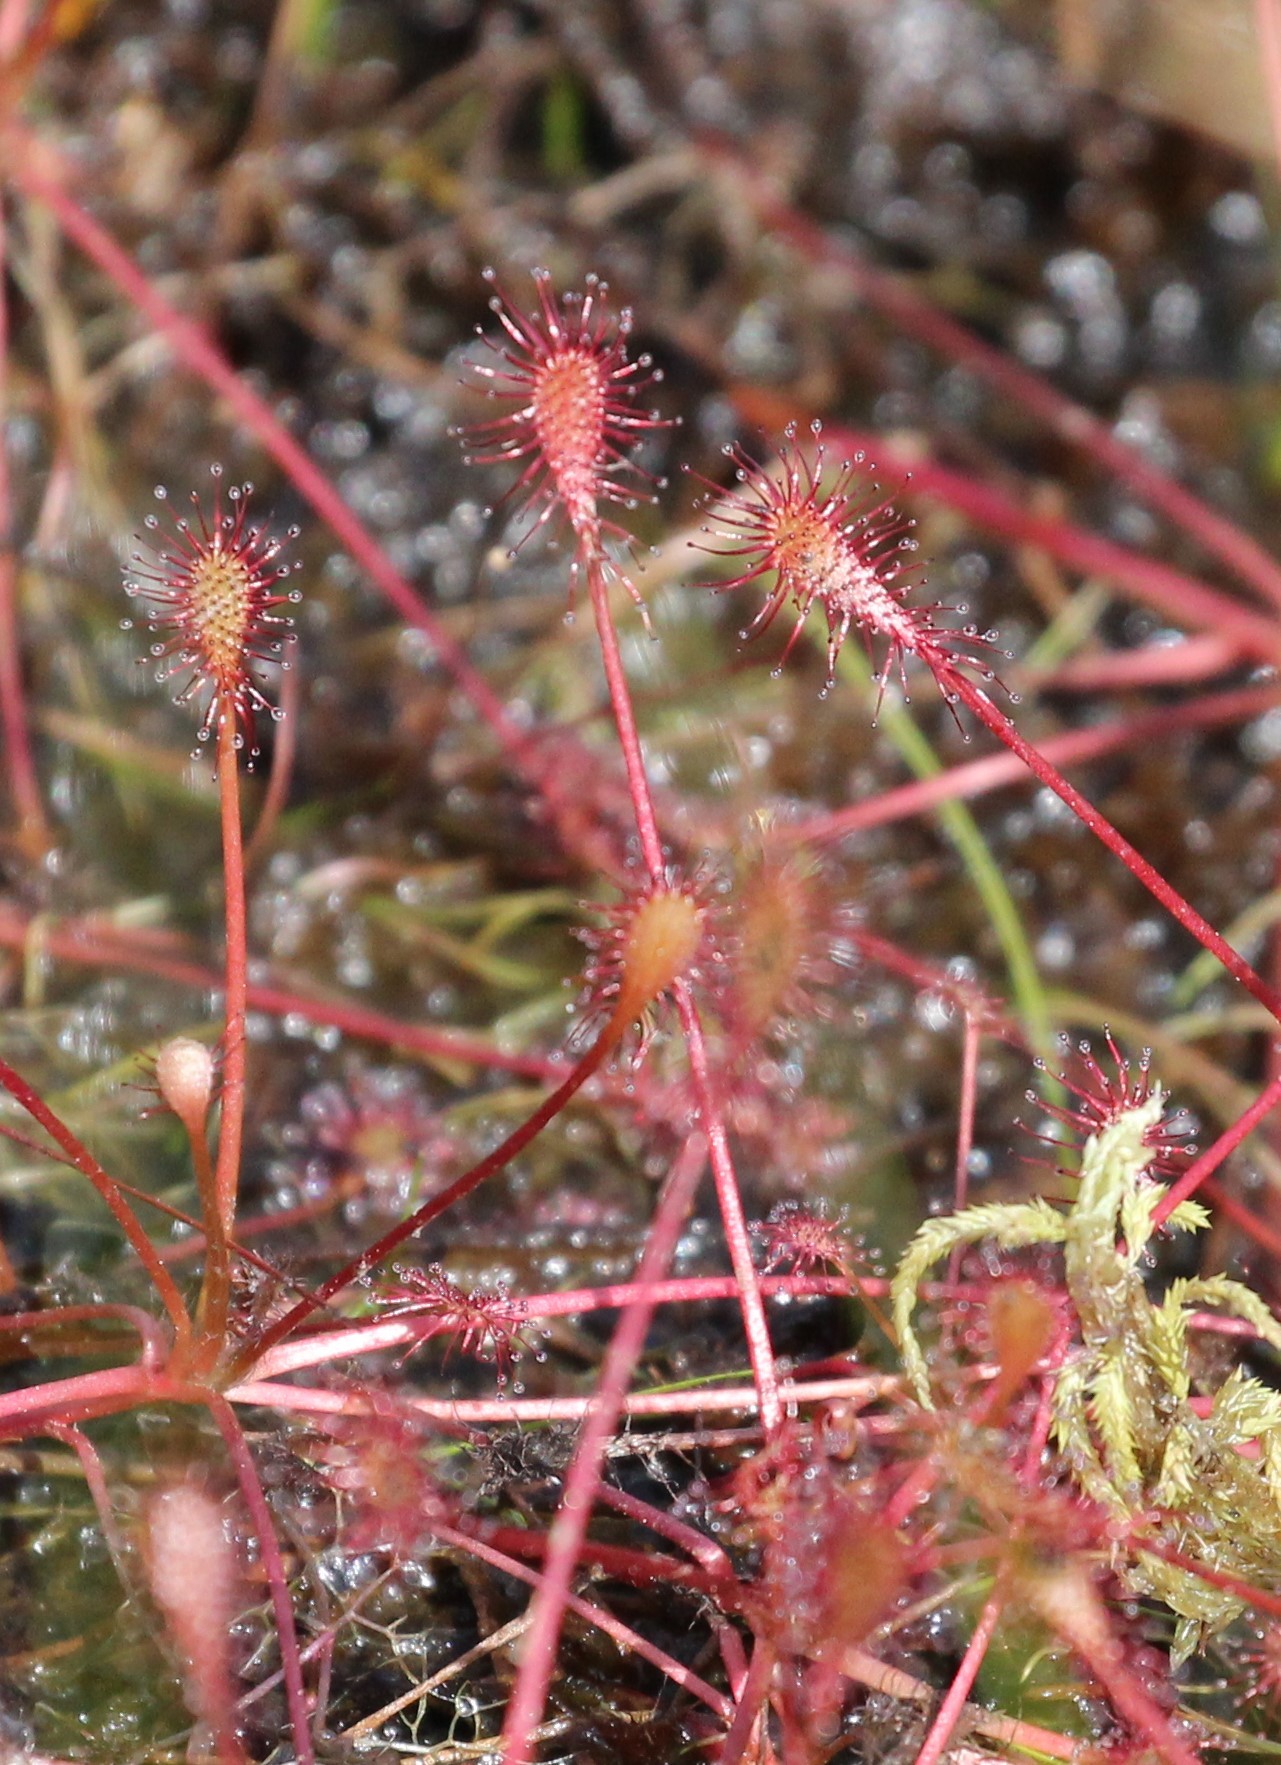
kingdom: Plantae
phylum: Tracheophyta
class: Magnoliopsida
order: Caryophyllales
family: Droseraceae
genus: Drosera
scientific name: Drosera intermedia
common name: Oblong-leaved sundew
